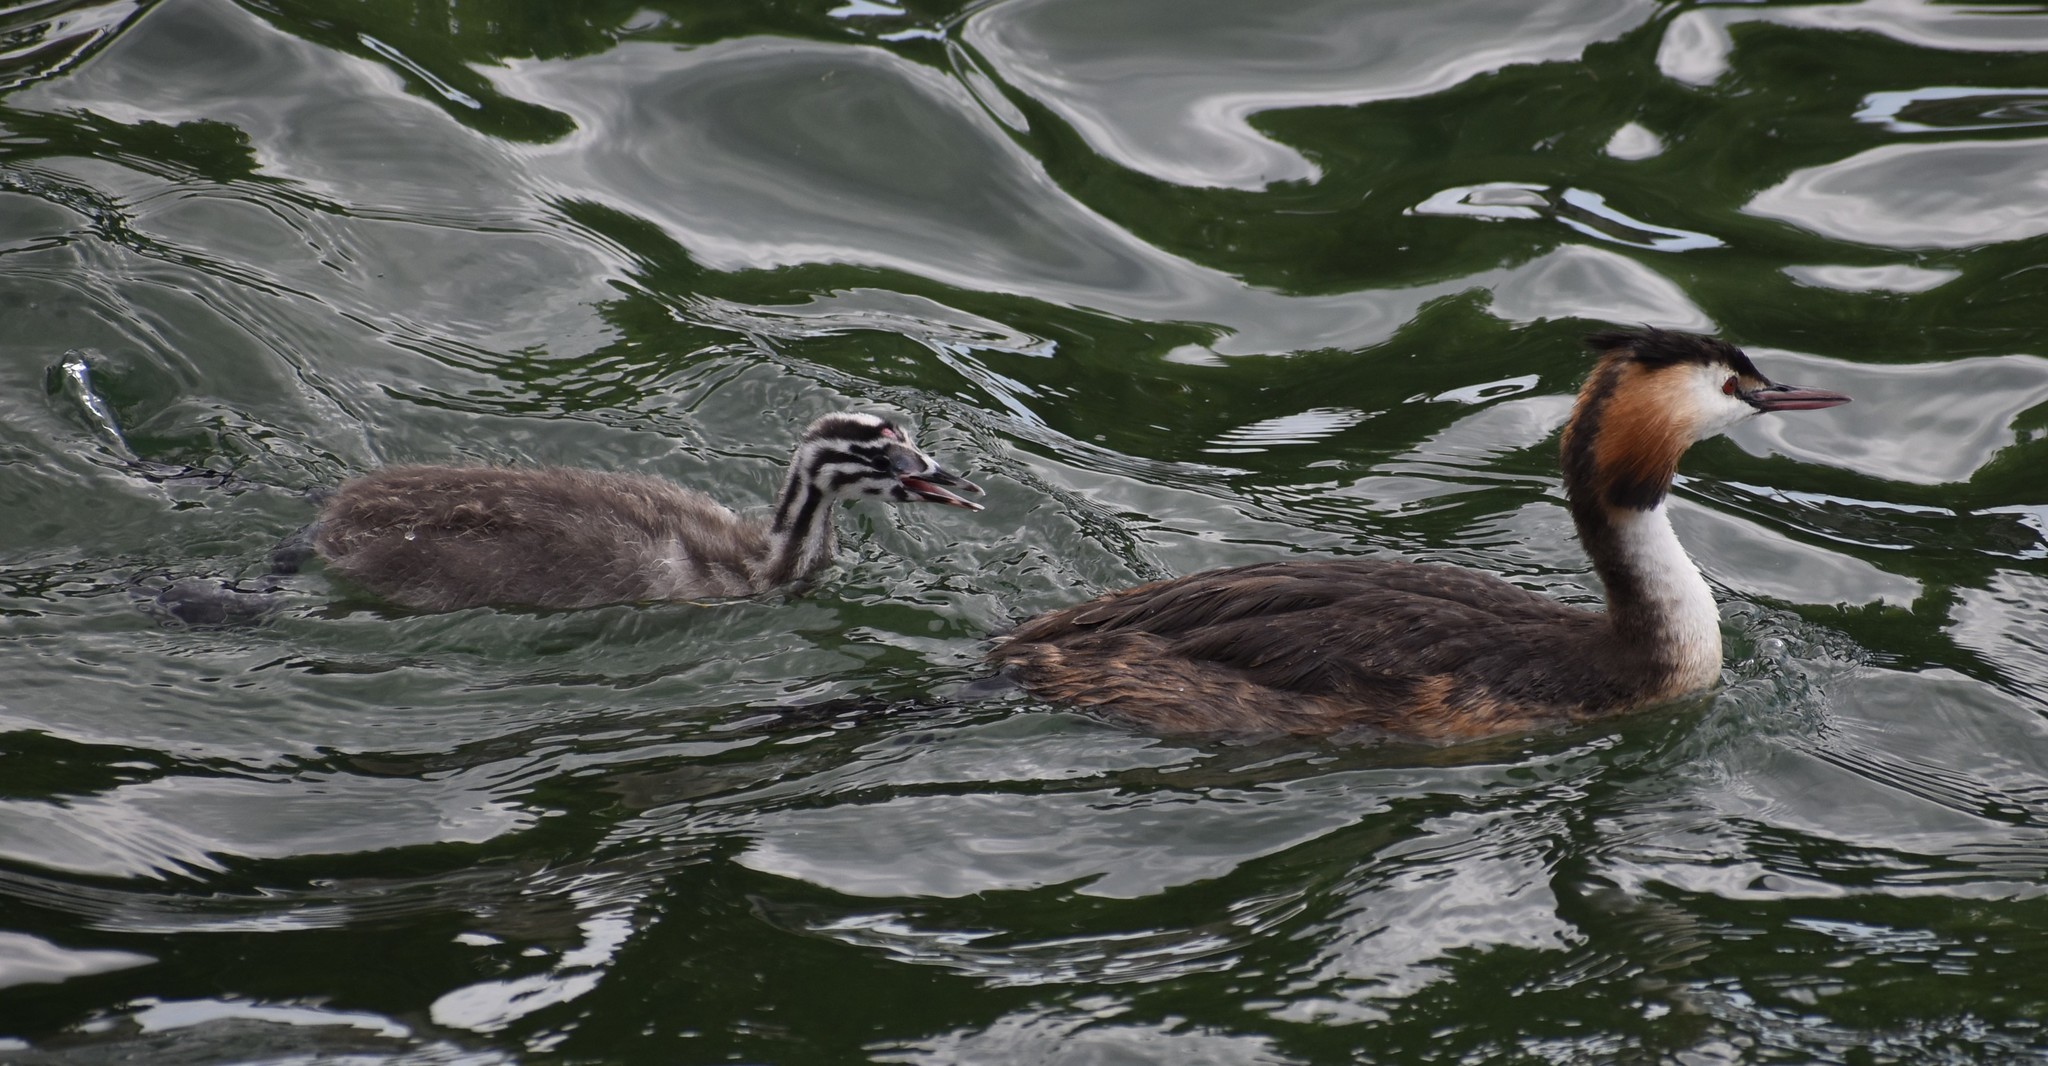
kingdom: Animalia
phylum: Chordata
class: Aves
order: Podicipediformes
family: Podicipedidae
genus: Podiceps
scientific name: Podiceps cristatus
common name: Great crested grebe
